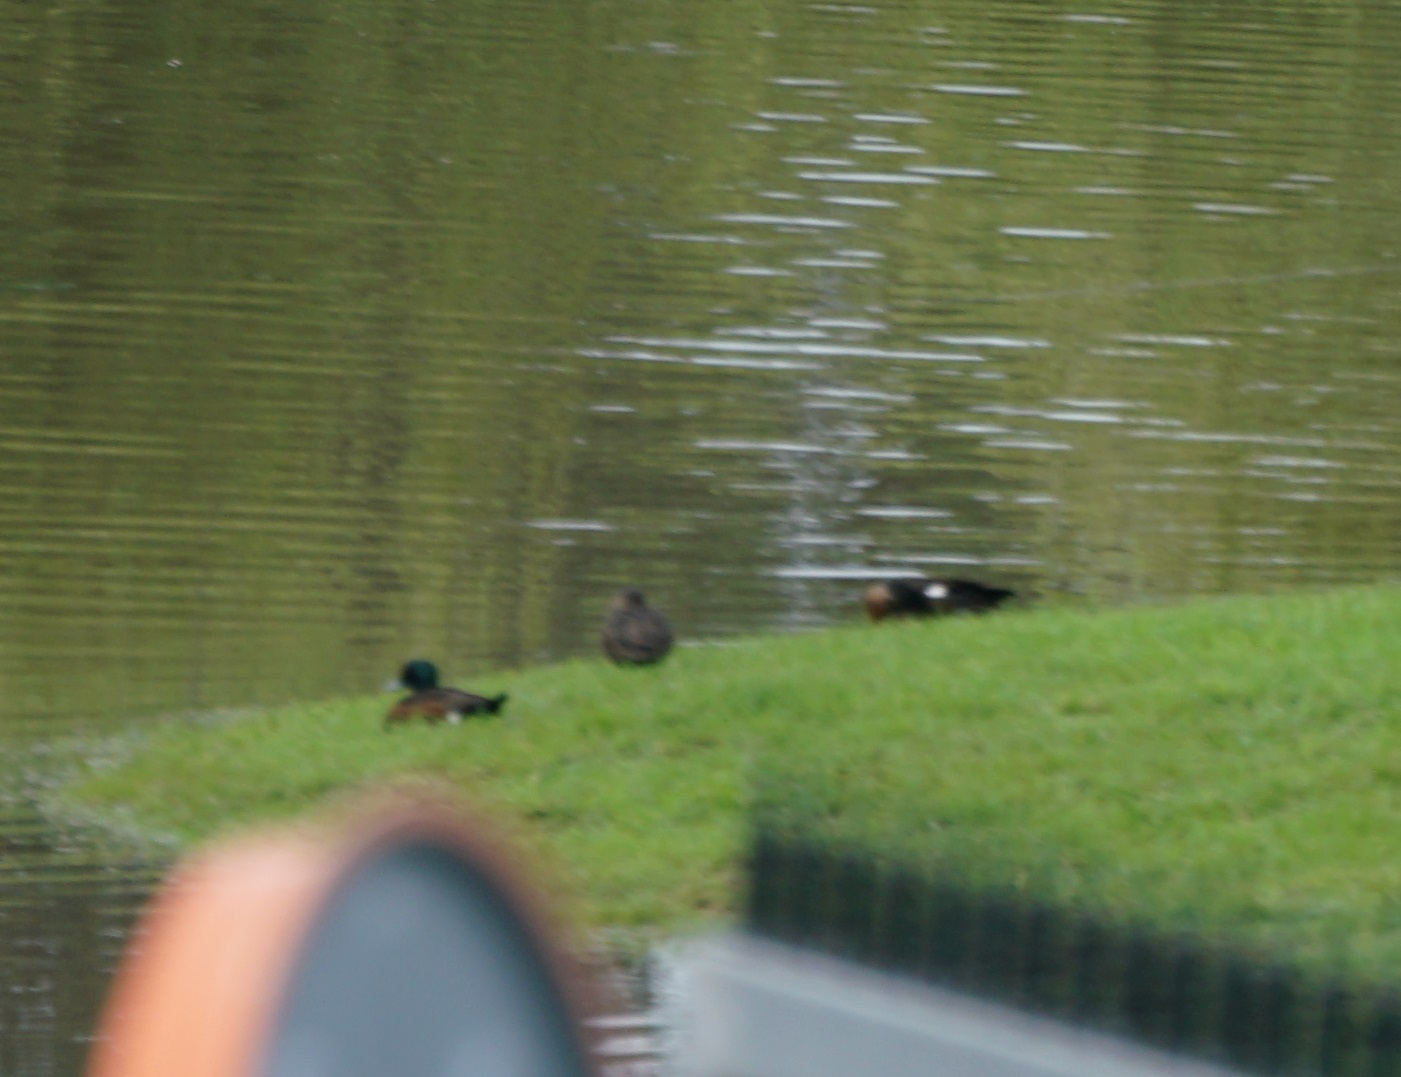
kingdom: Animalia
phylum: Chordata
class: Aves
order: Anseriformes
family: Anatidae
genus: Anas
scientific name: Anas castanea
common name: Chestnut teal
